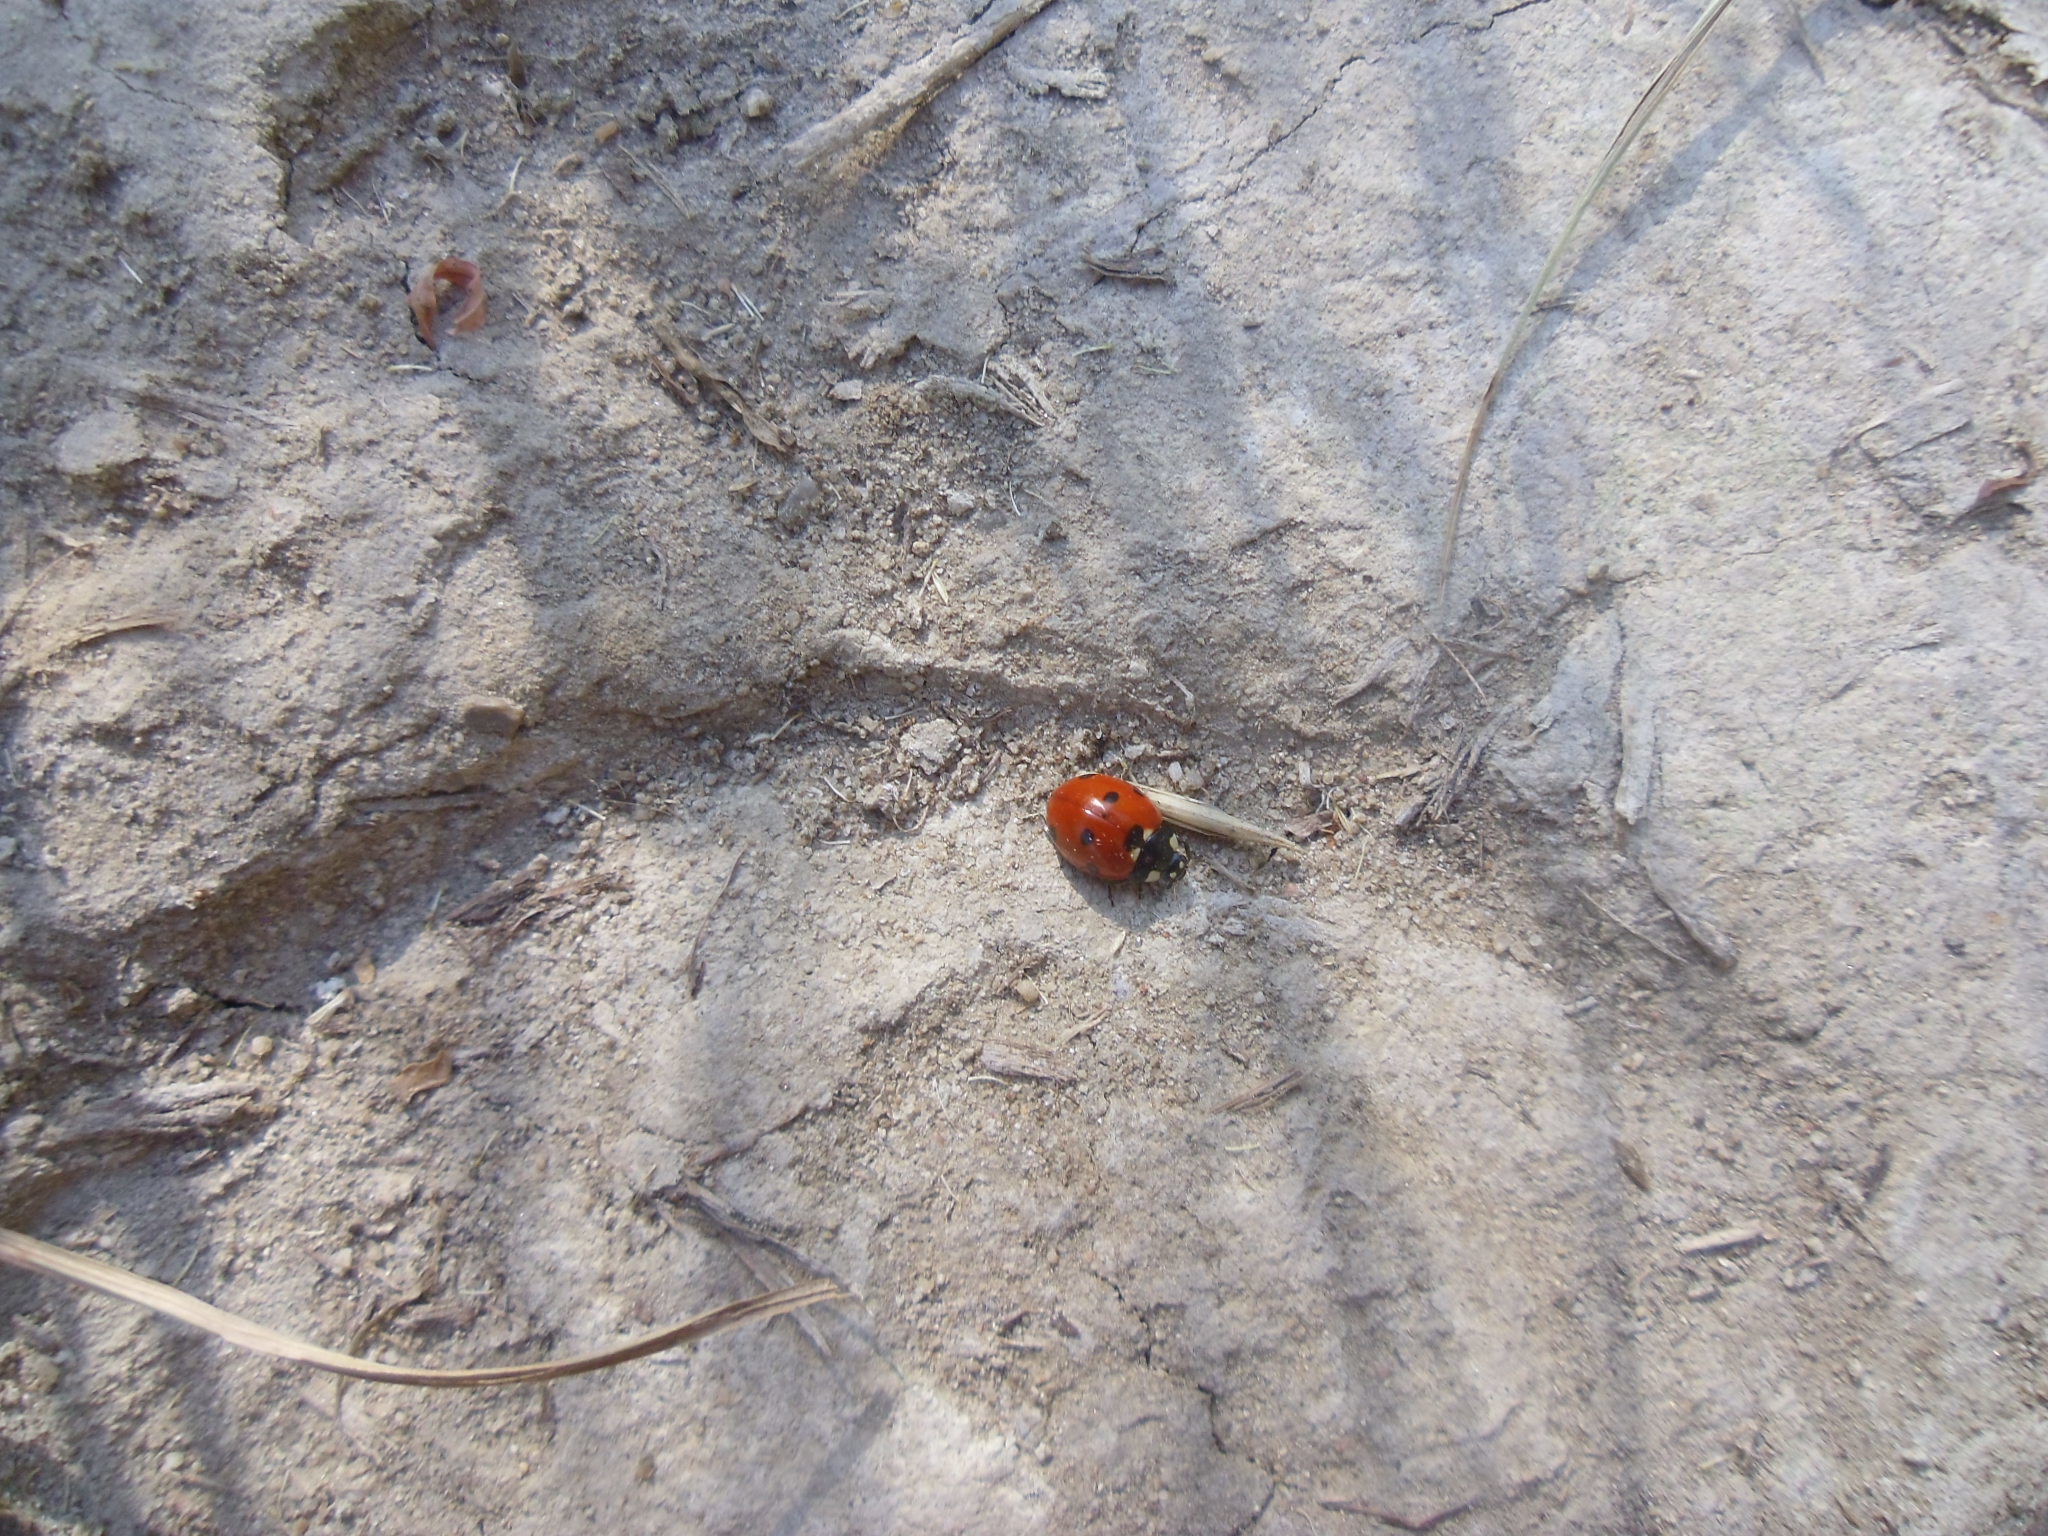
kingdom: Animalia
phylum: Arthropoda
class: Insecta
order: Coleoptera
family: Coccinellidae
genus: Coccinella
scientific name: Coccinella septempunctata
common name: Sevenspotted lady beetle
